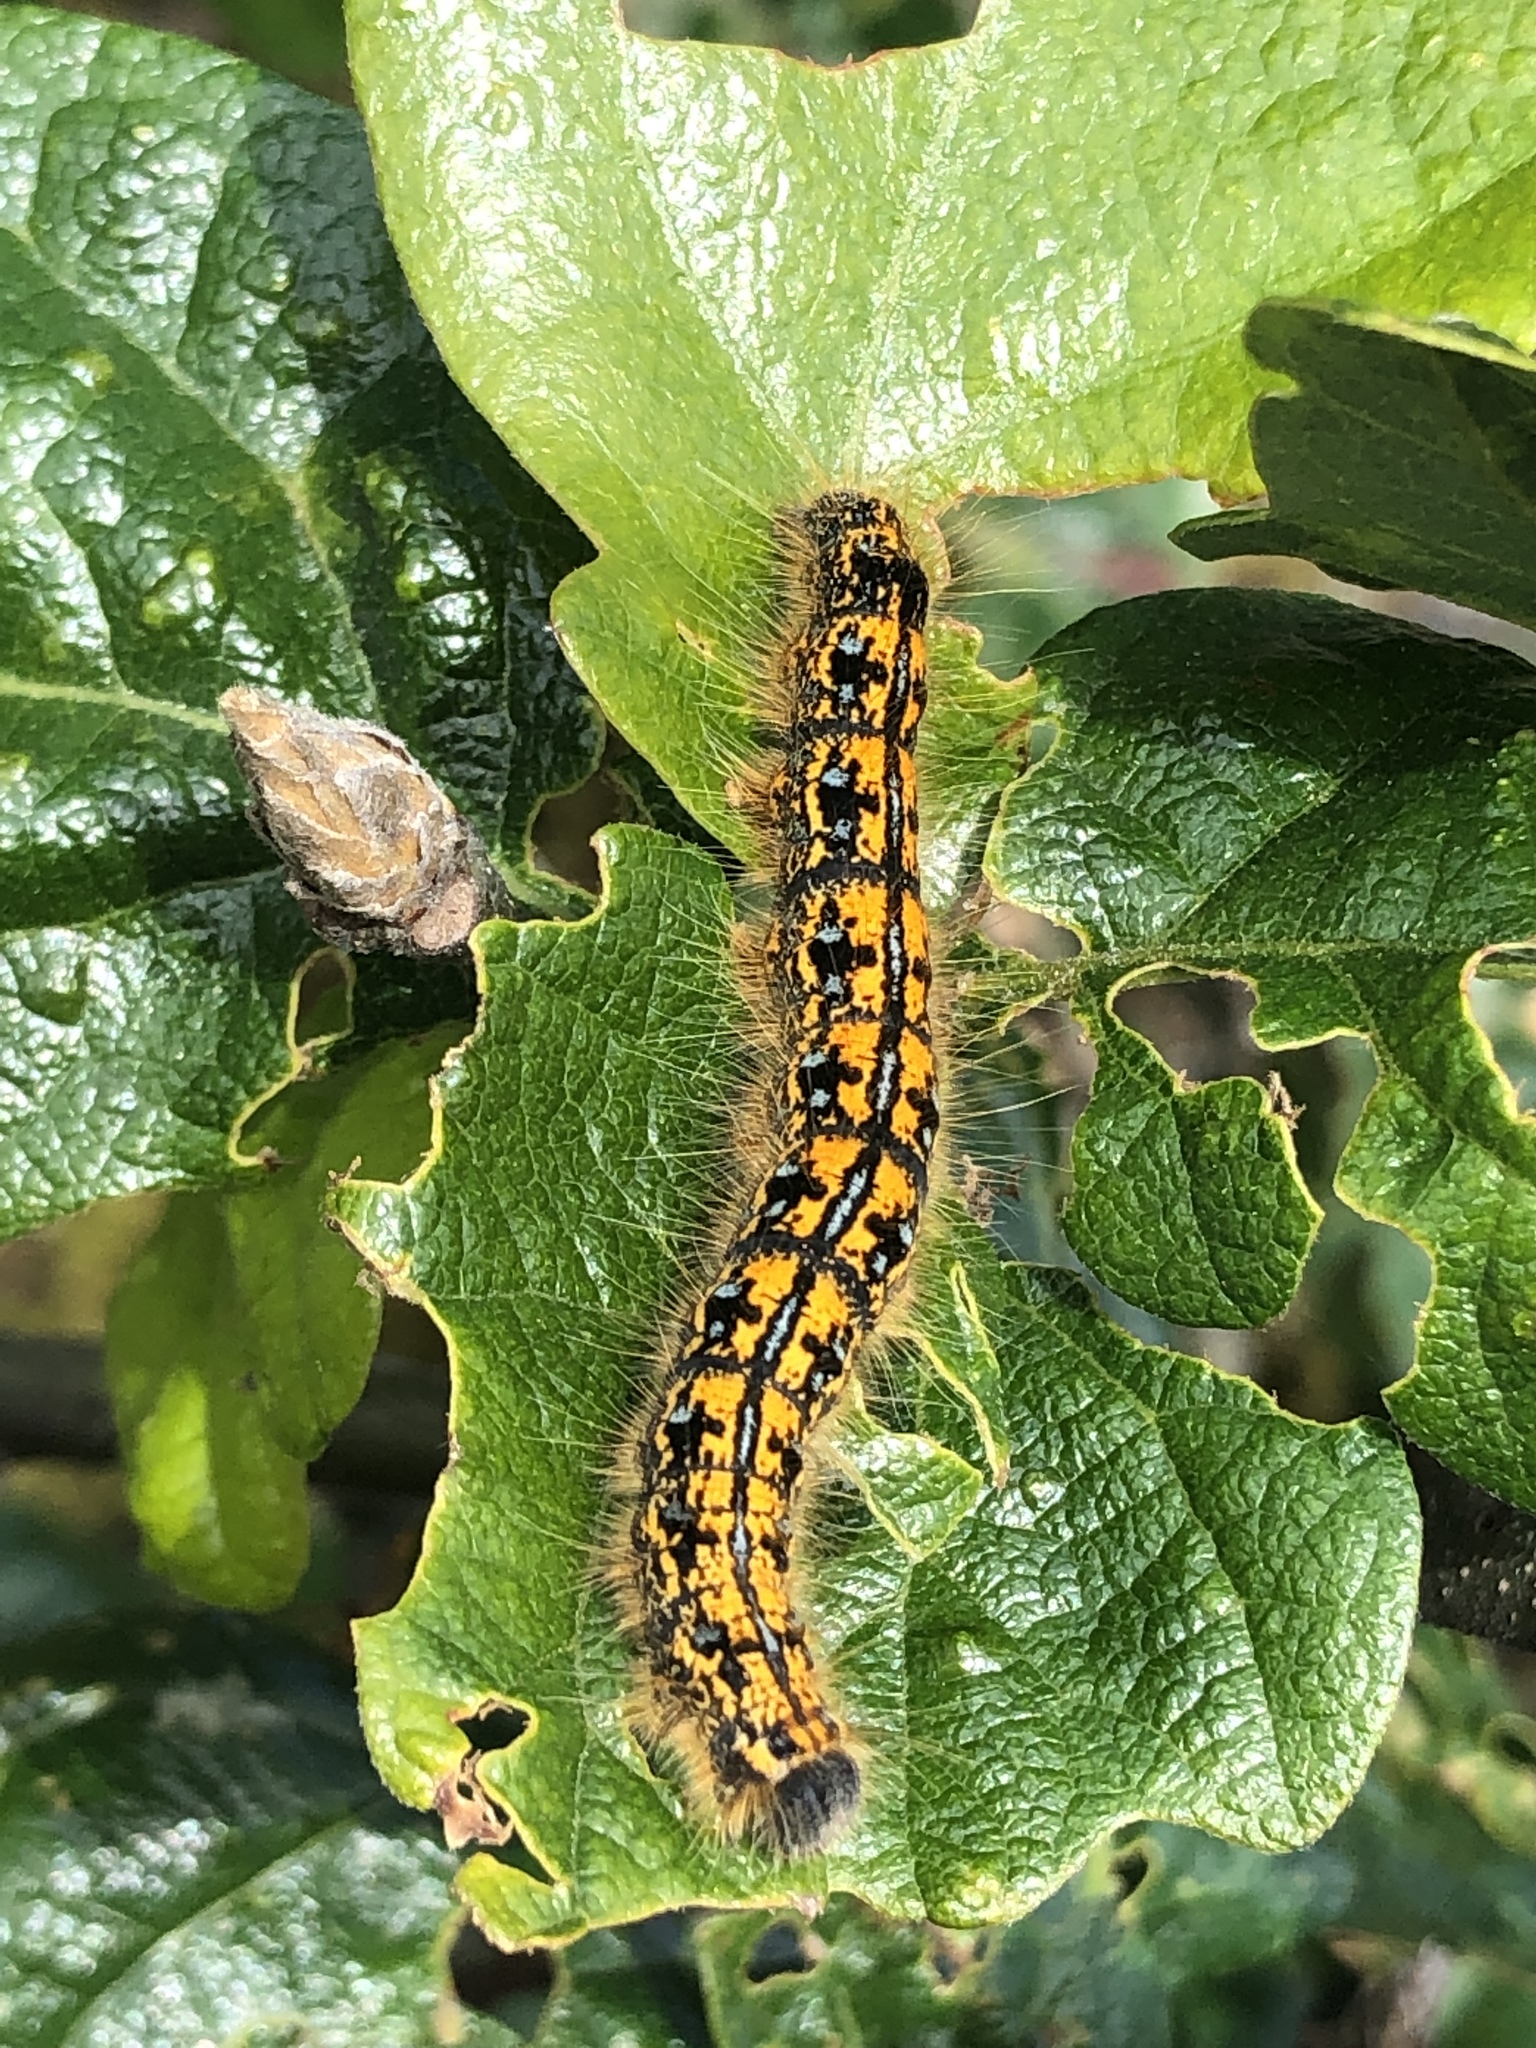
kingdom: Animalia
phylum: Arthropoda
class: Insecta
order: Lepidoptera
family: Lasiocampidae
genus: Malacosoma
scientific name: Malacosoma californica
